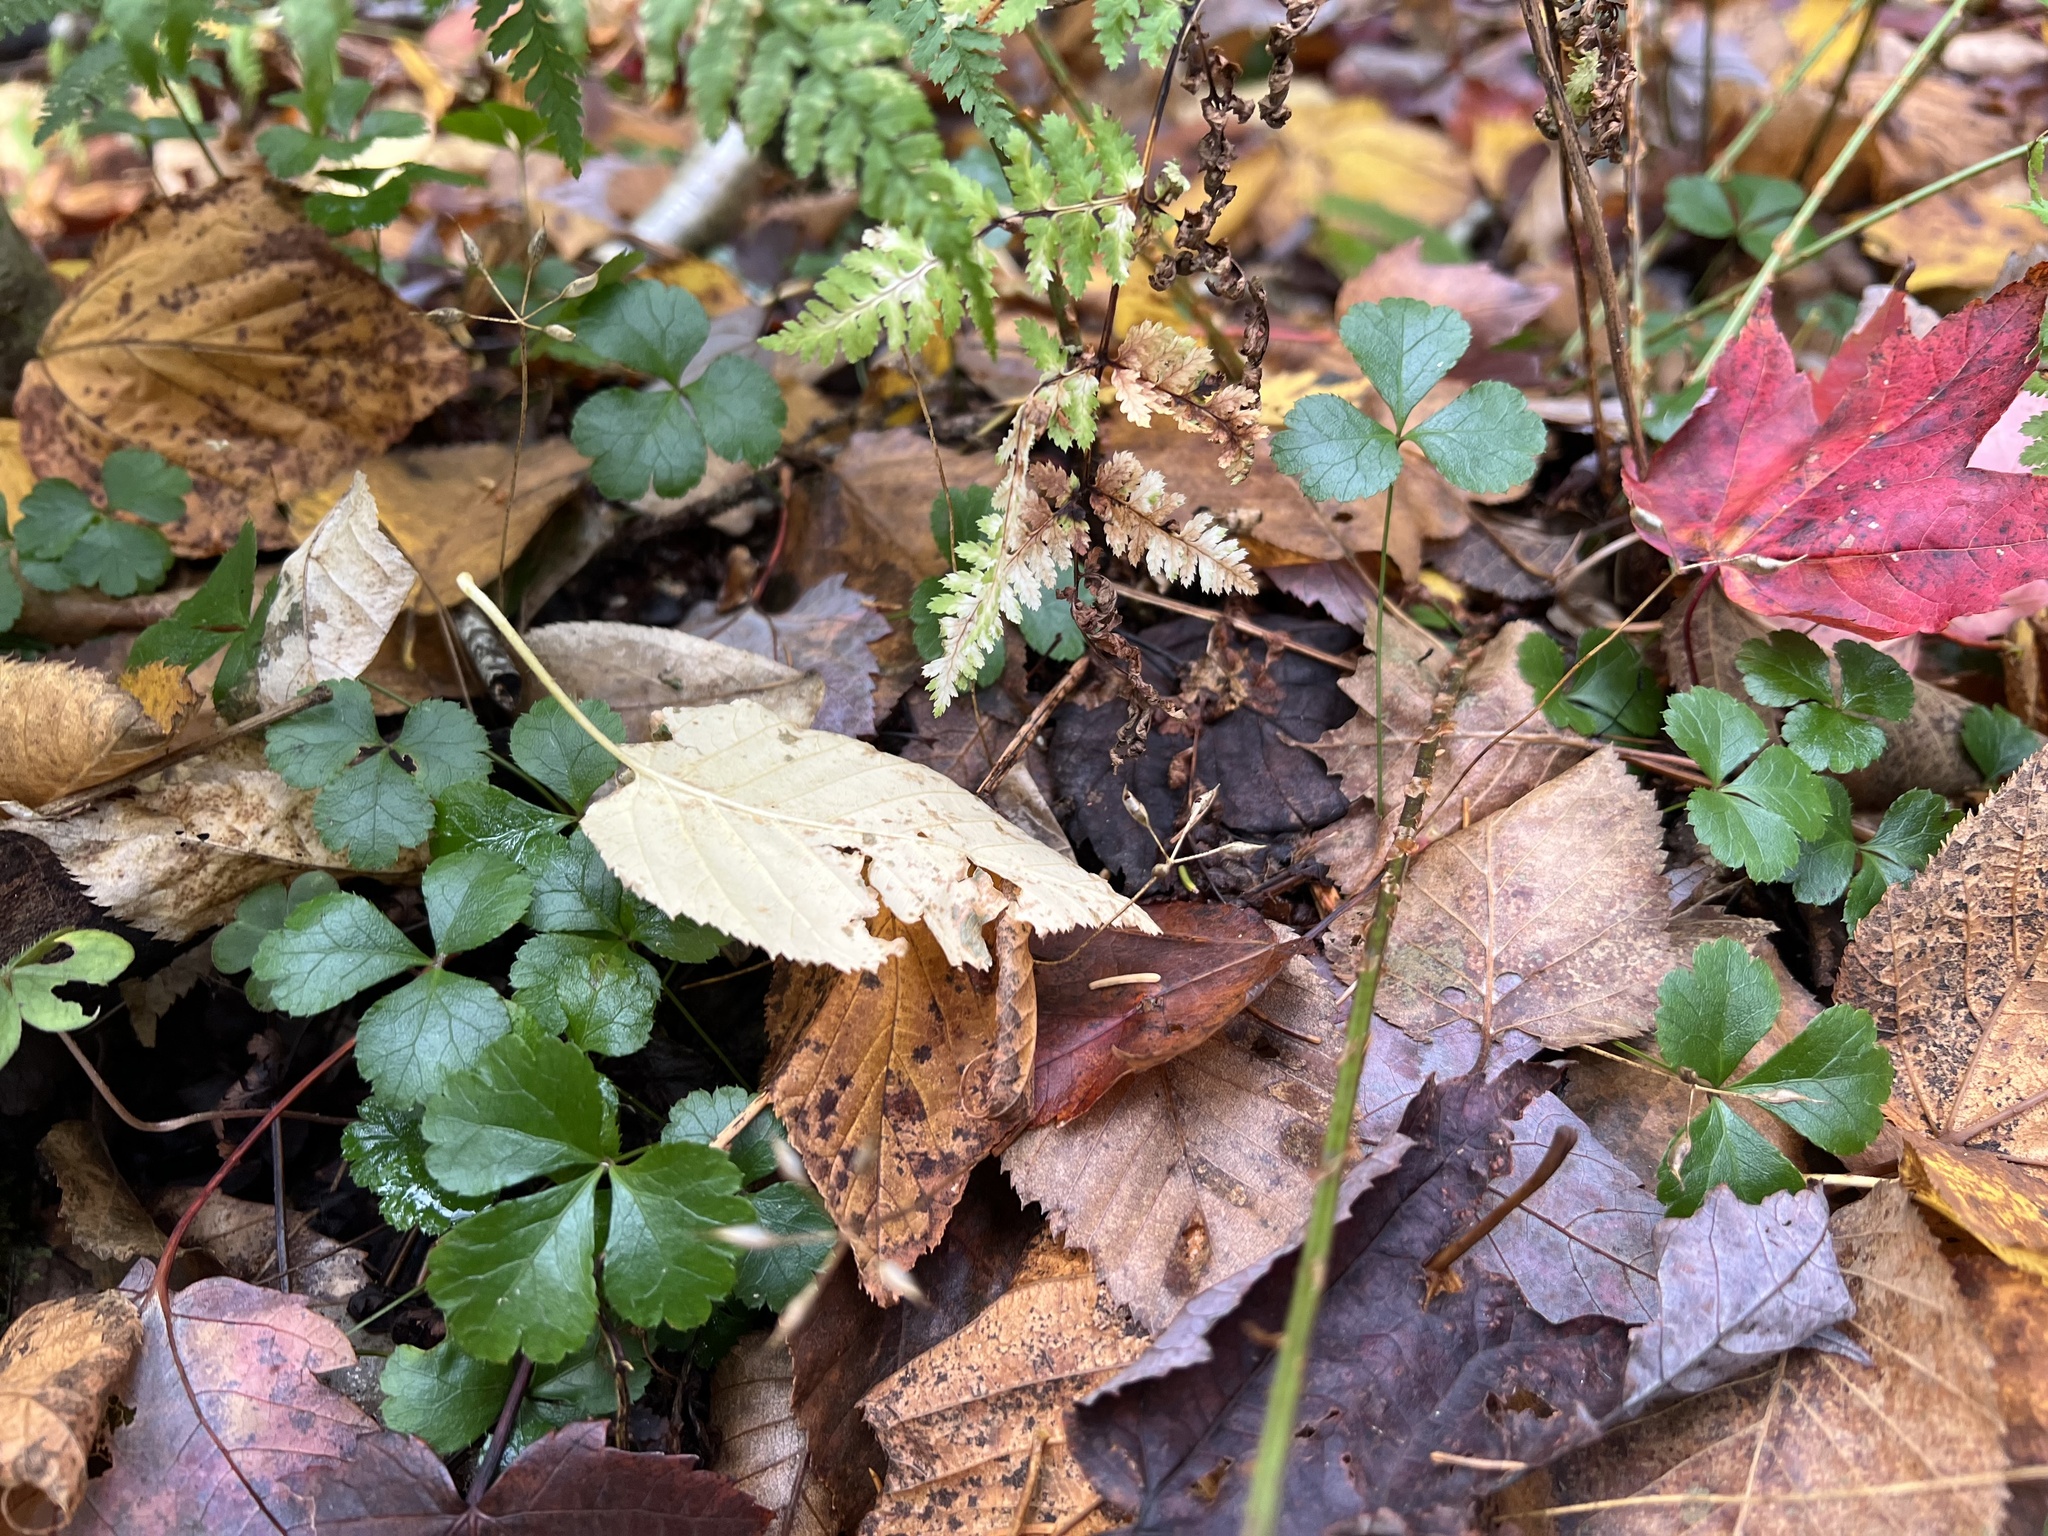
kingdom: Plantae
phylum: Tracheophyta
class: Magnoliopsida
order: Ranunculales
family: Ranunculaceae
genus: Coptis
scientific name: Coptis trifolia
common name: Canker-root
